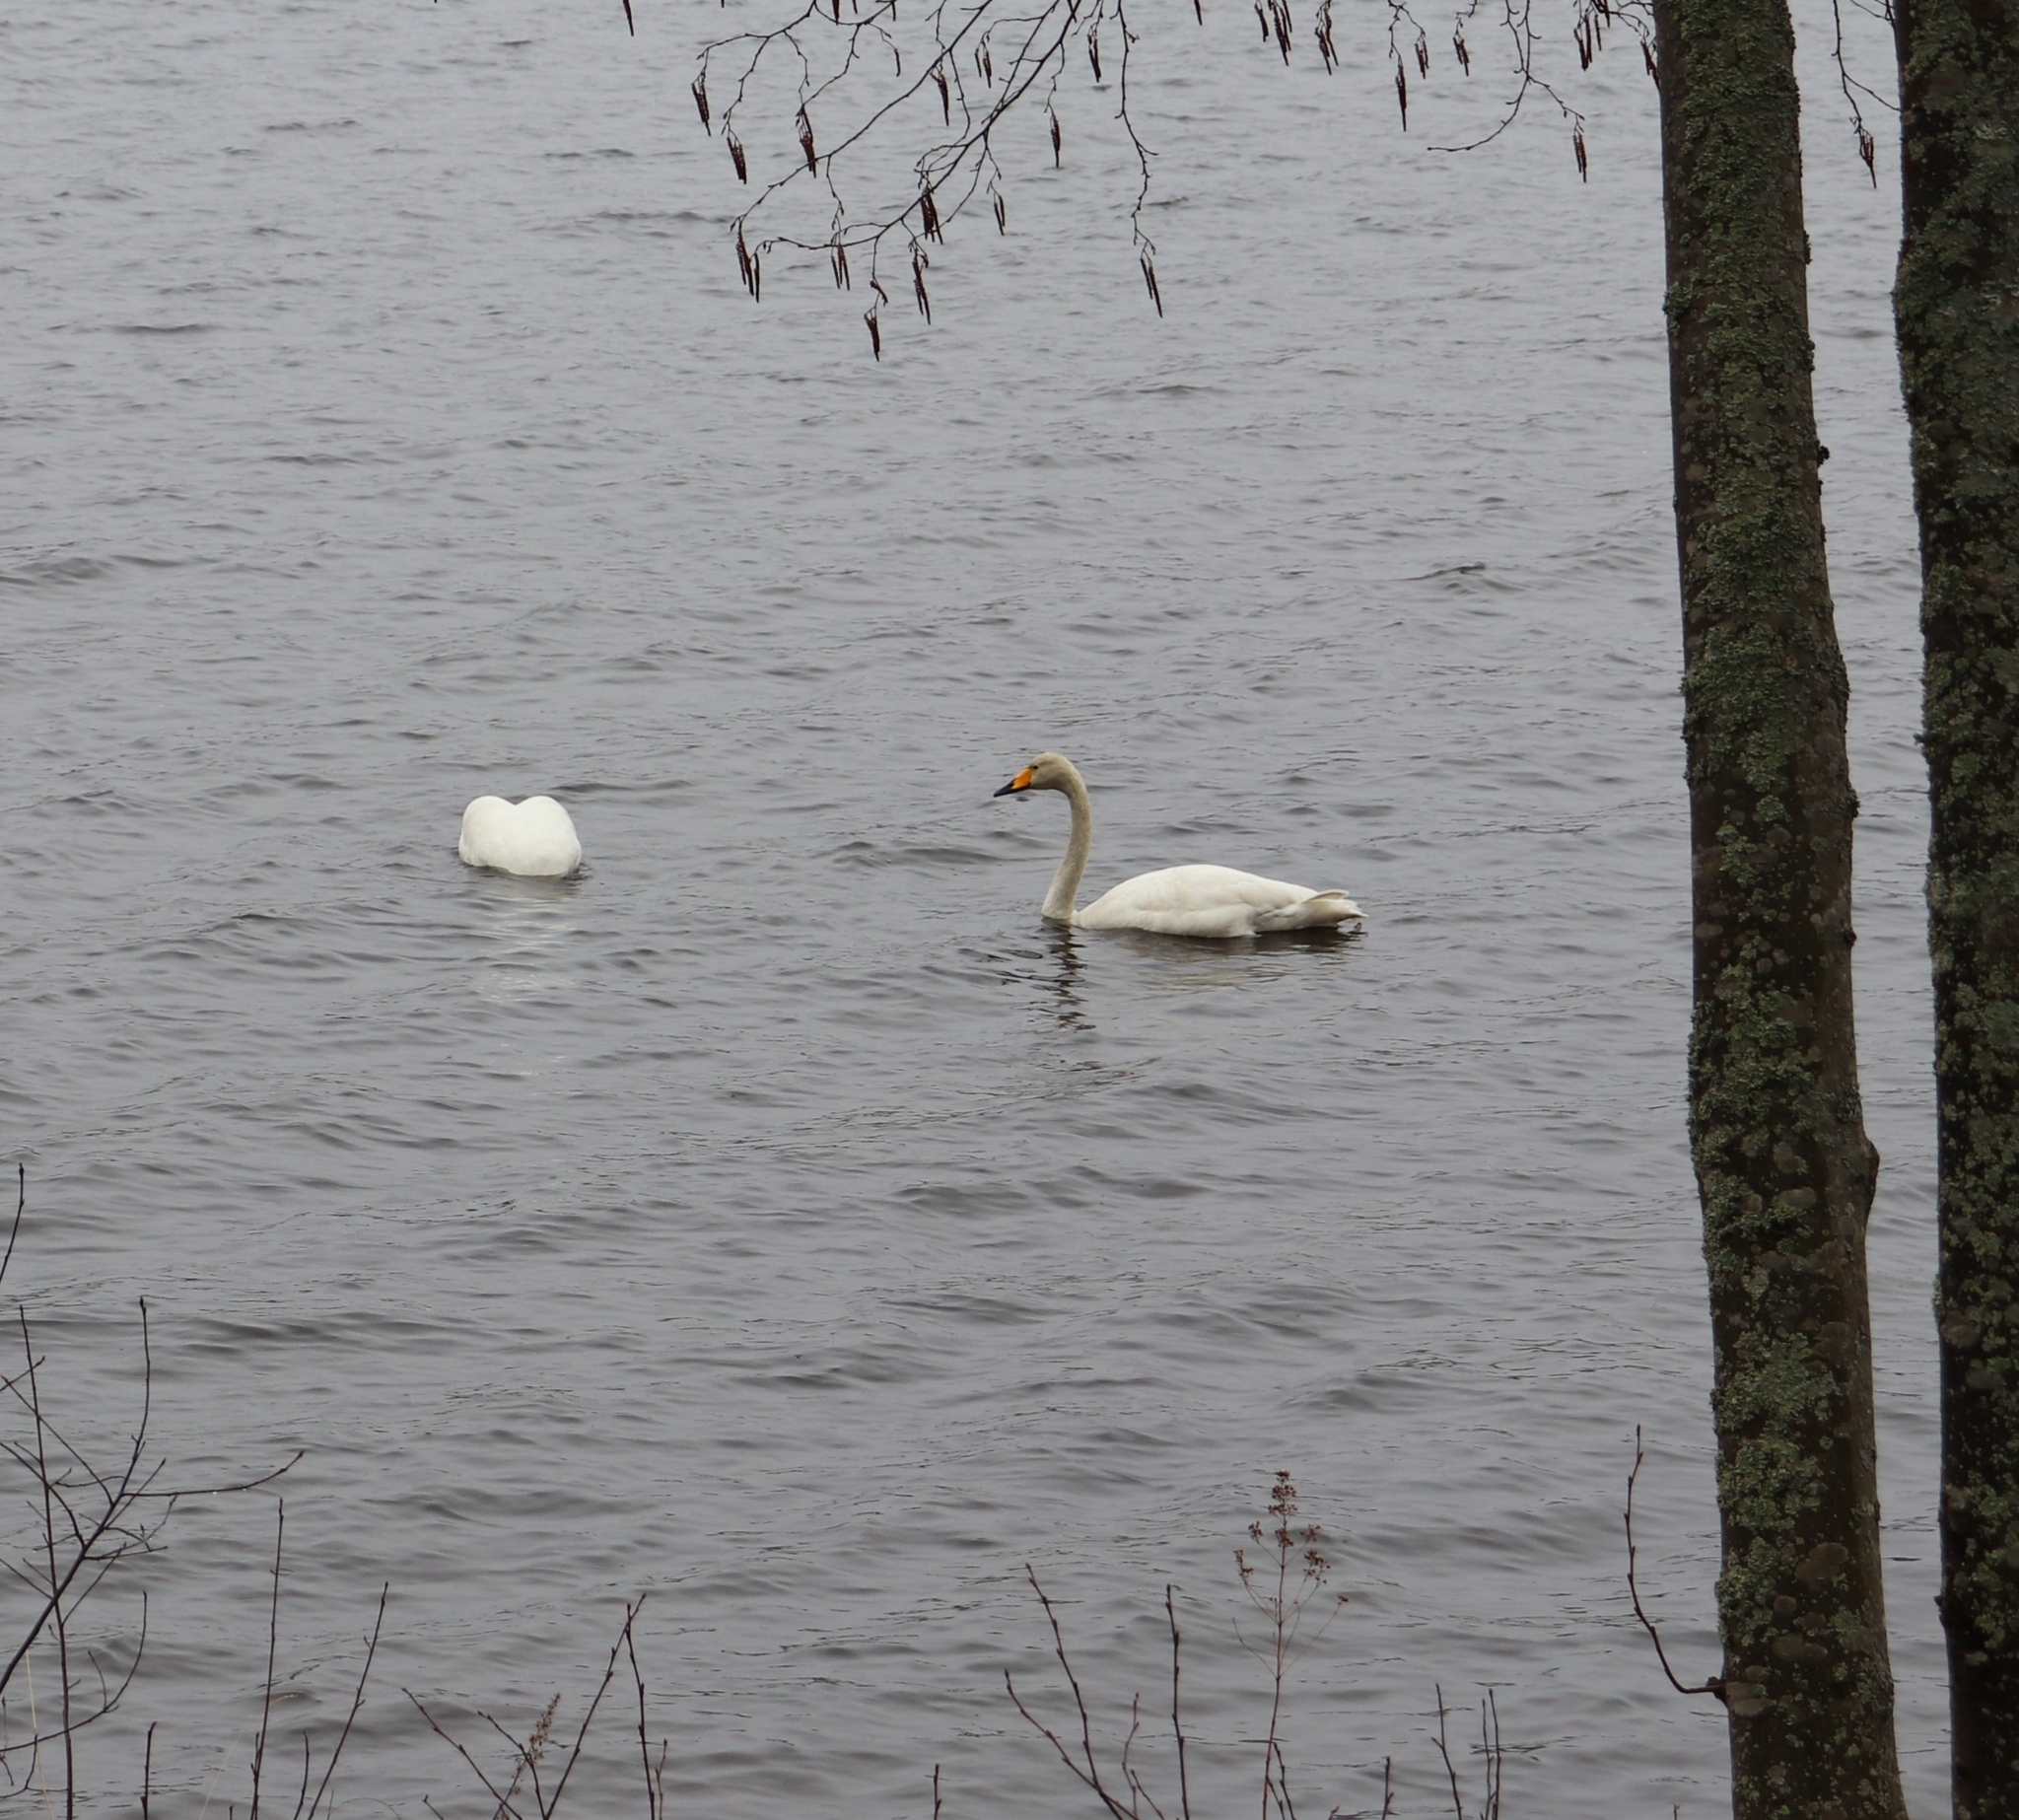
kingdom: Animalia
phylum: Chordata
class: Aves
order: Anseriformes
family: Anatidae
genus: Cygnus
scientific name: Cygnus cygnus
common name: Whooper swan
